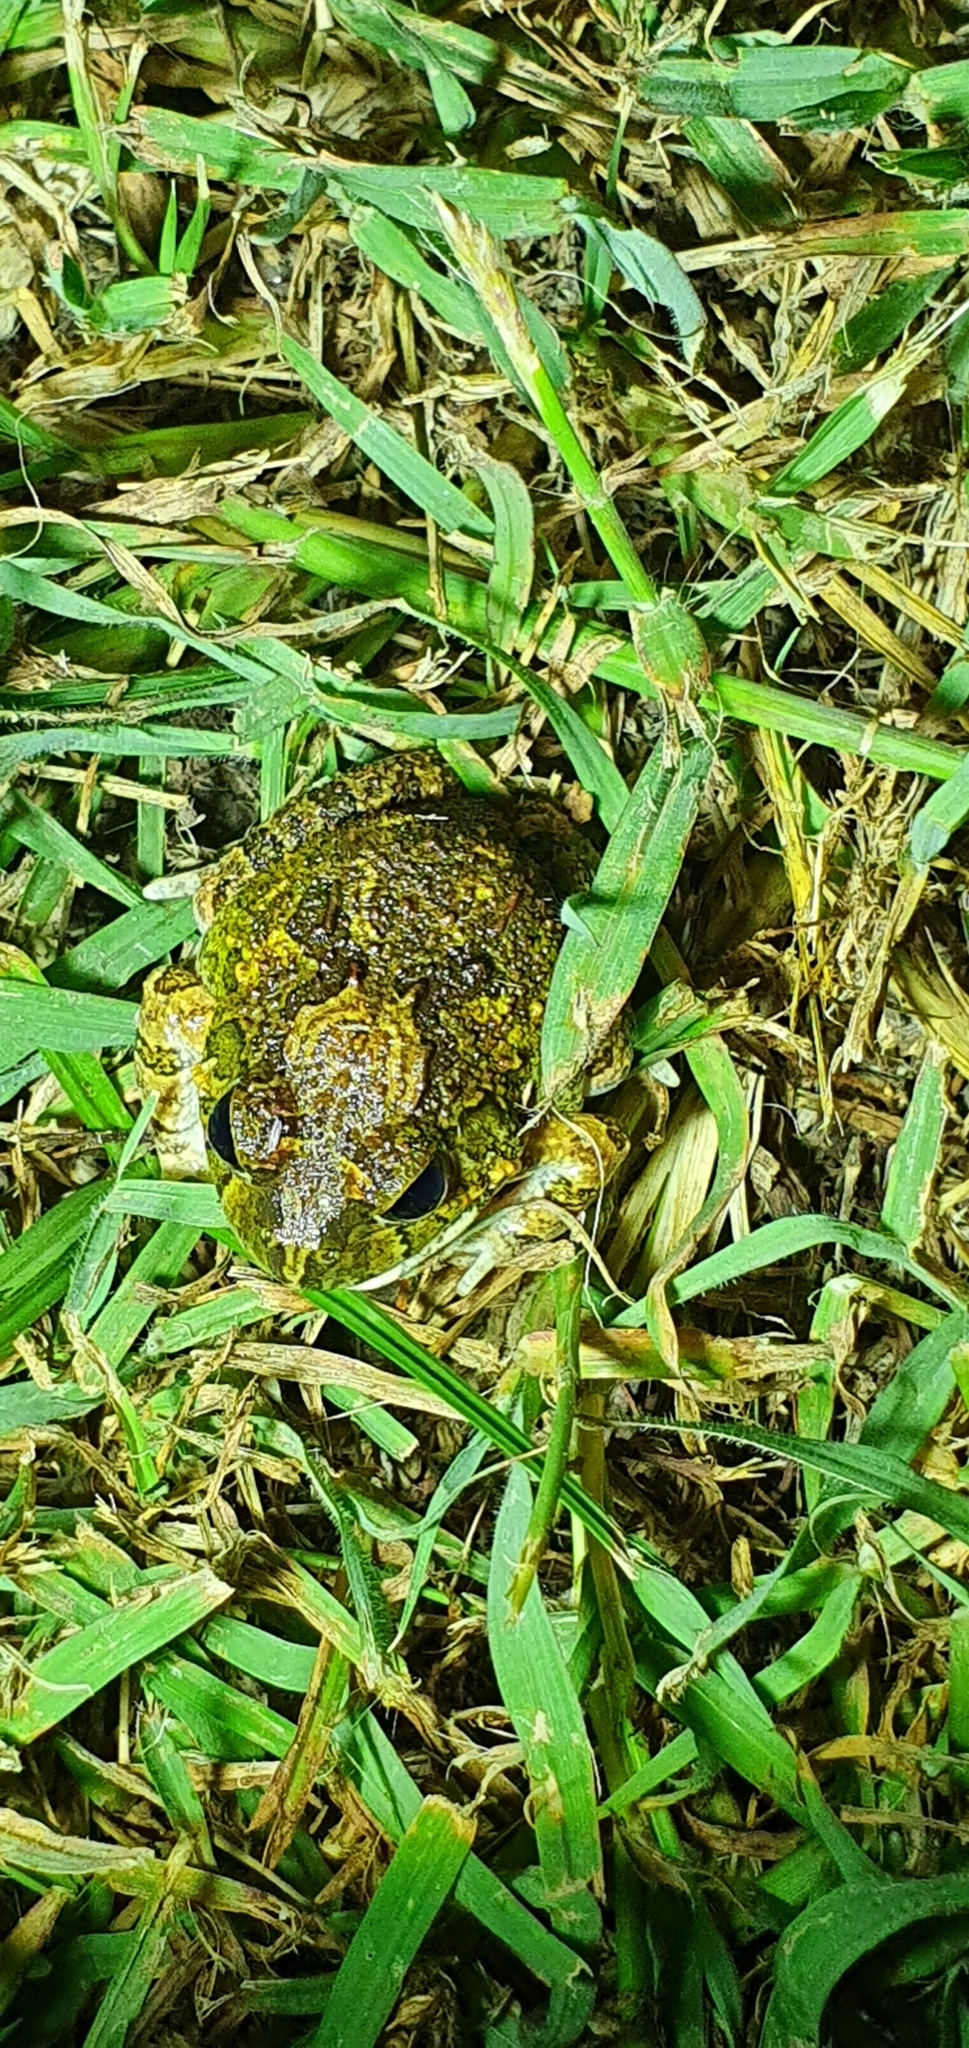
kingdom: Animalia
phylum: Chordata
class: Amphibia
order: Anura
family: Limnodynastidae
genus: Platyplectrum
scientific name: Platyplectrum ornatum
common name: Ornate burrowing frog
